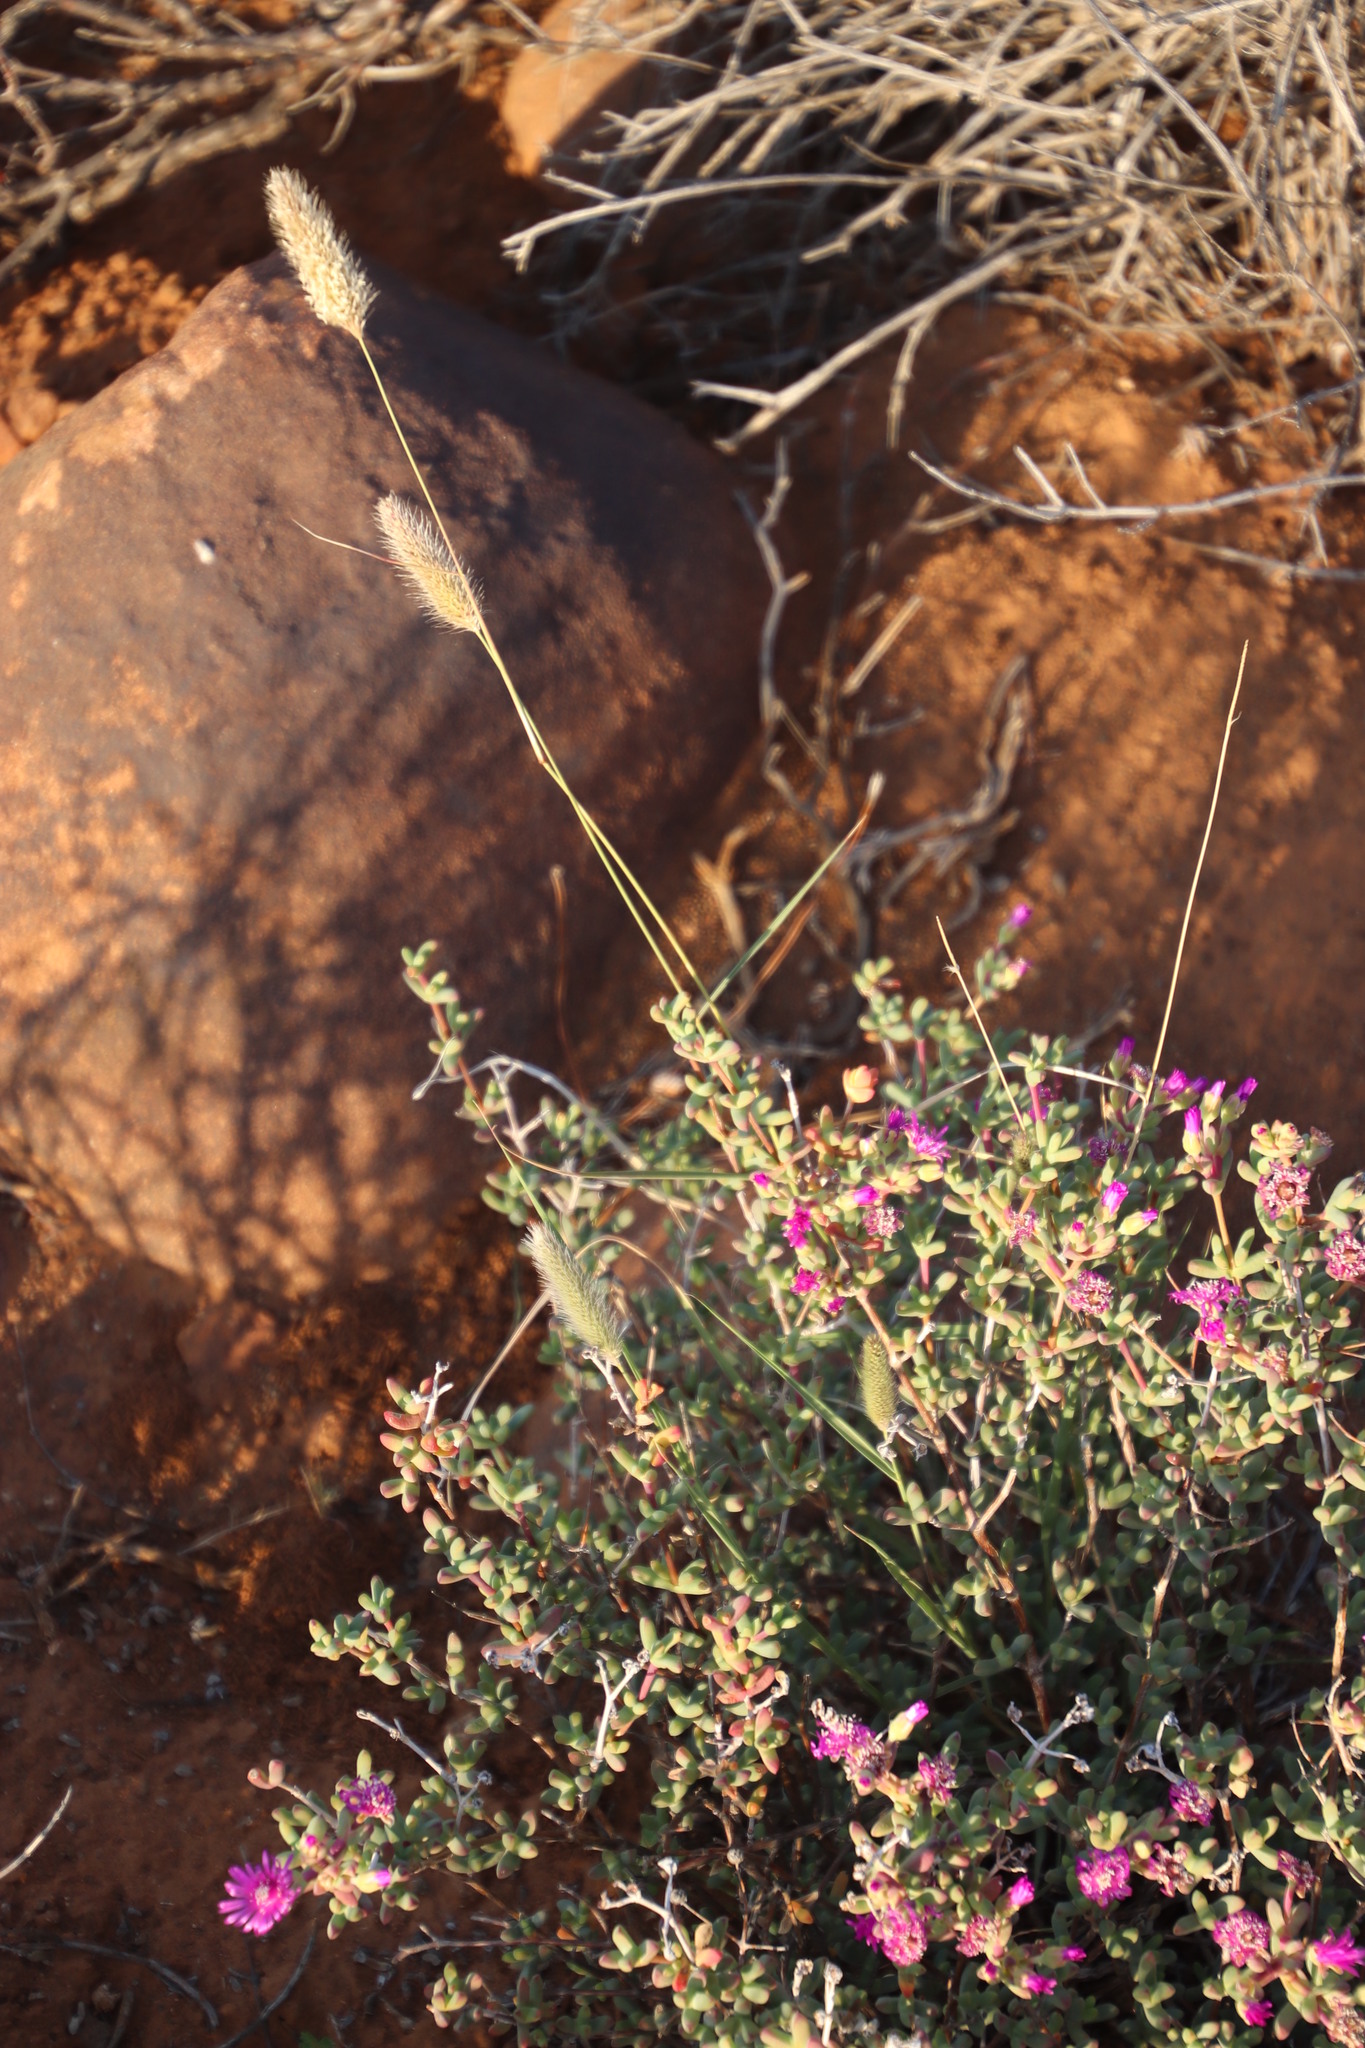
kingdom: Plantae
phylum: Tracheophyta
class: Liliopsida
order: Poales
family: Poaceae
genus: Fingerhuthia
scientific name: Fingerhuthia africana
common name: Zulu fescue
